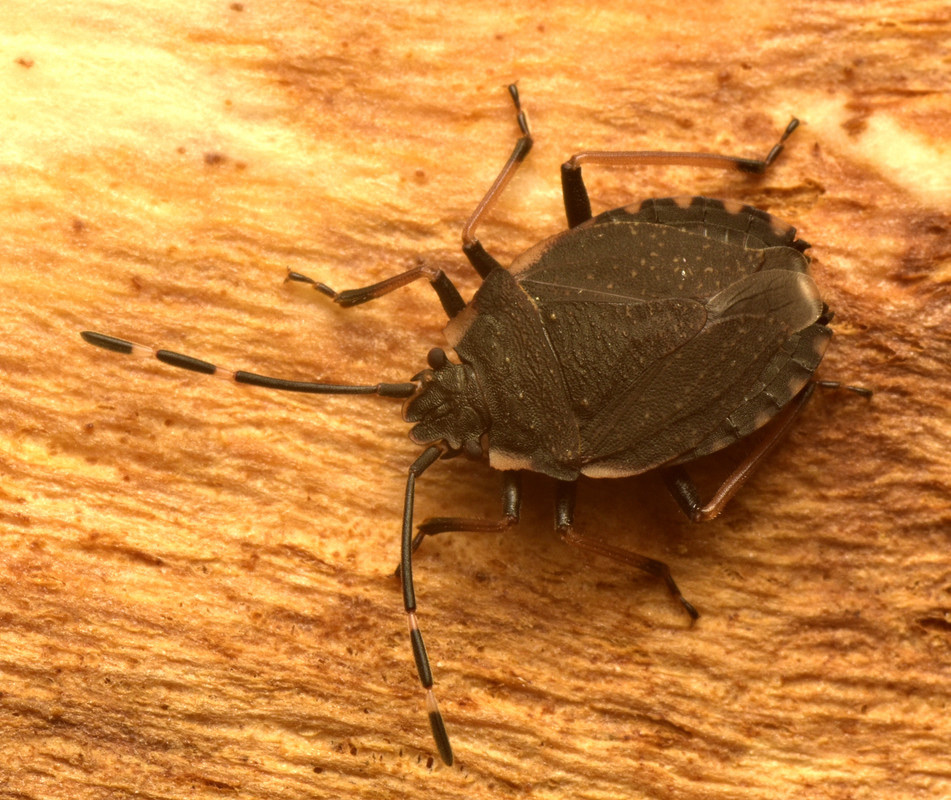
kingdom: Animalia
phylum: Arthropoda
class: Insecta
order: Hemiptera
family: Pentatomidae
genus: Diemenia
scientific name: Diemenia
